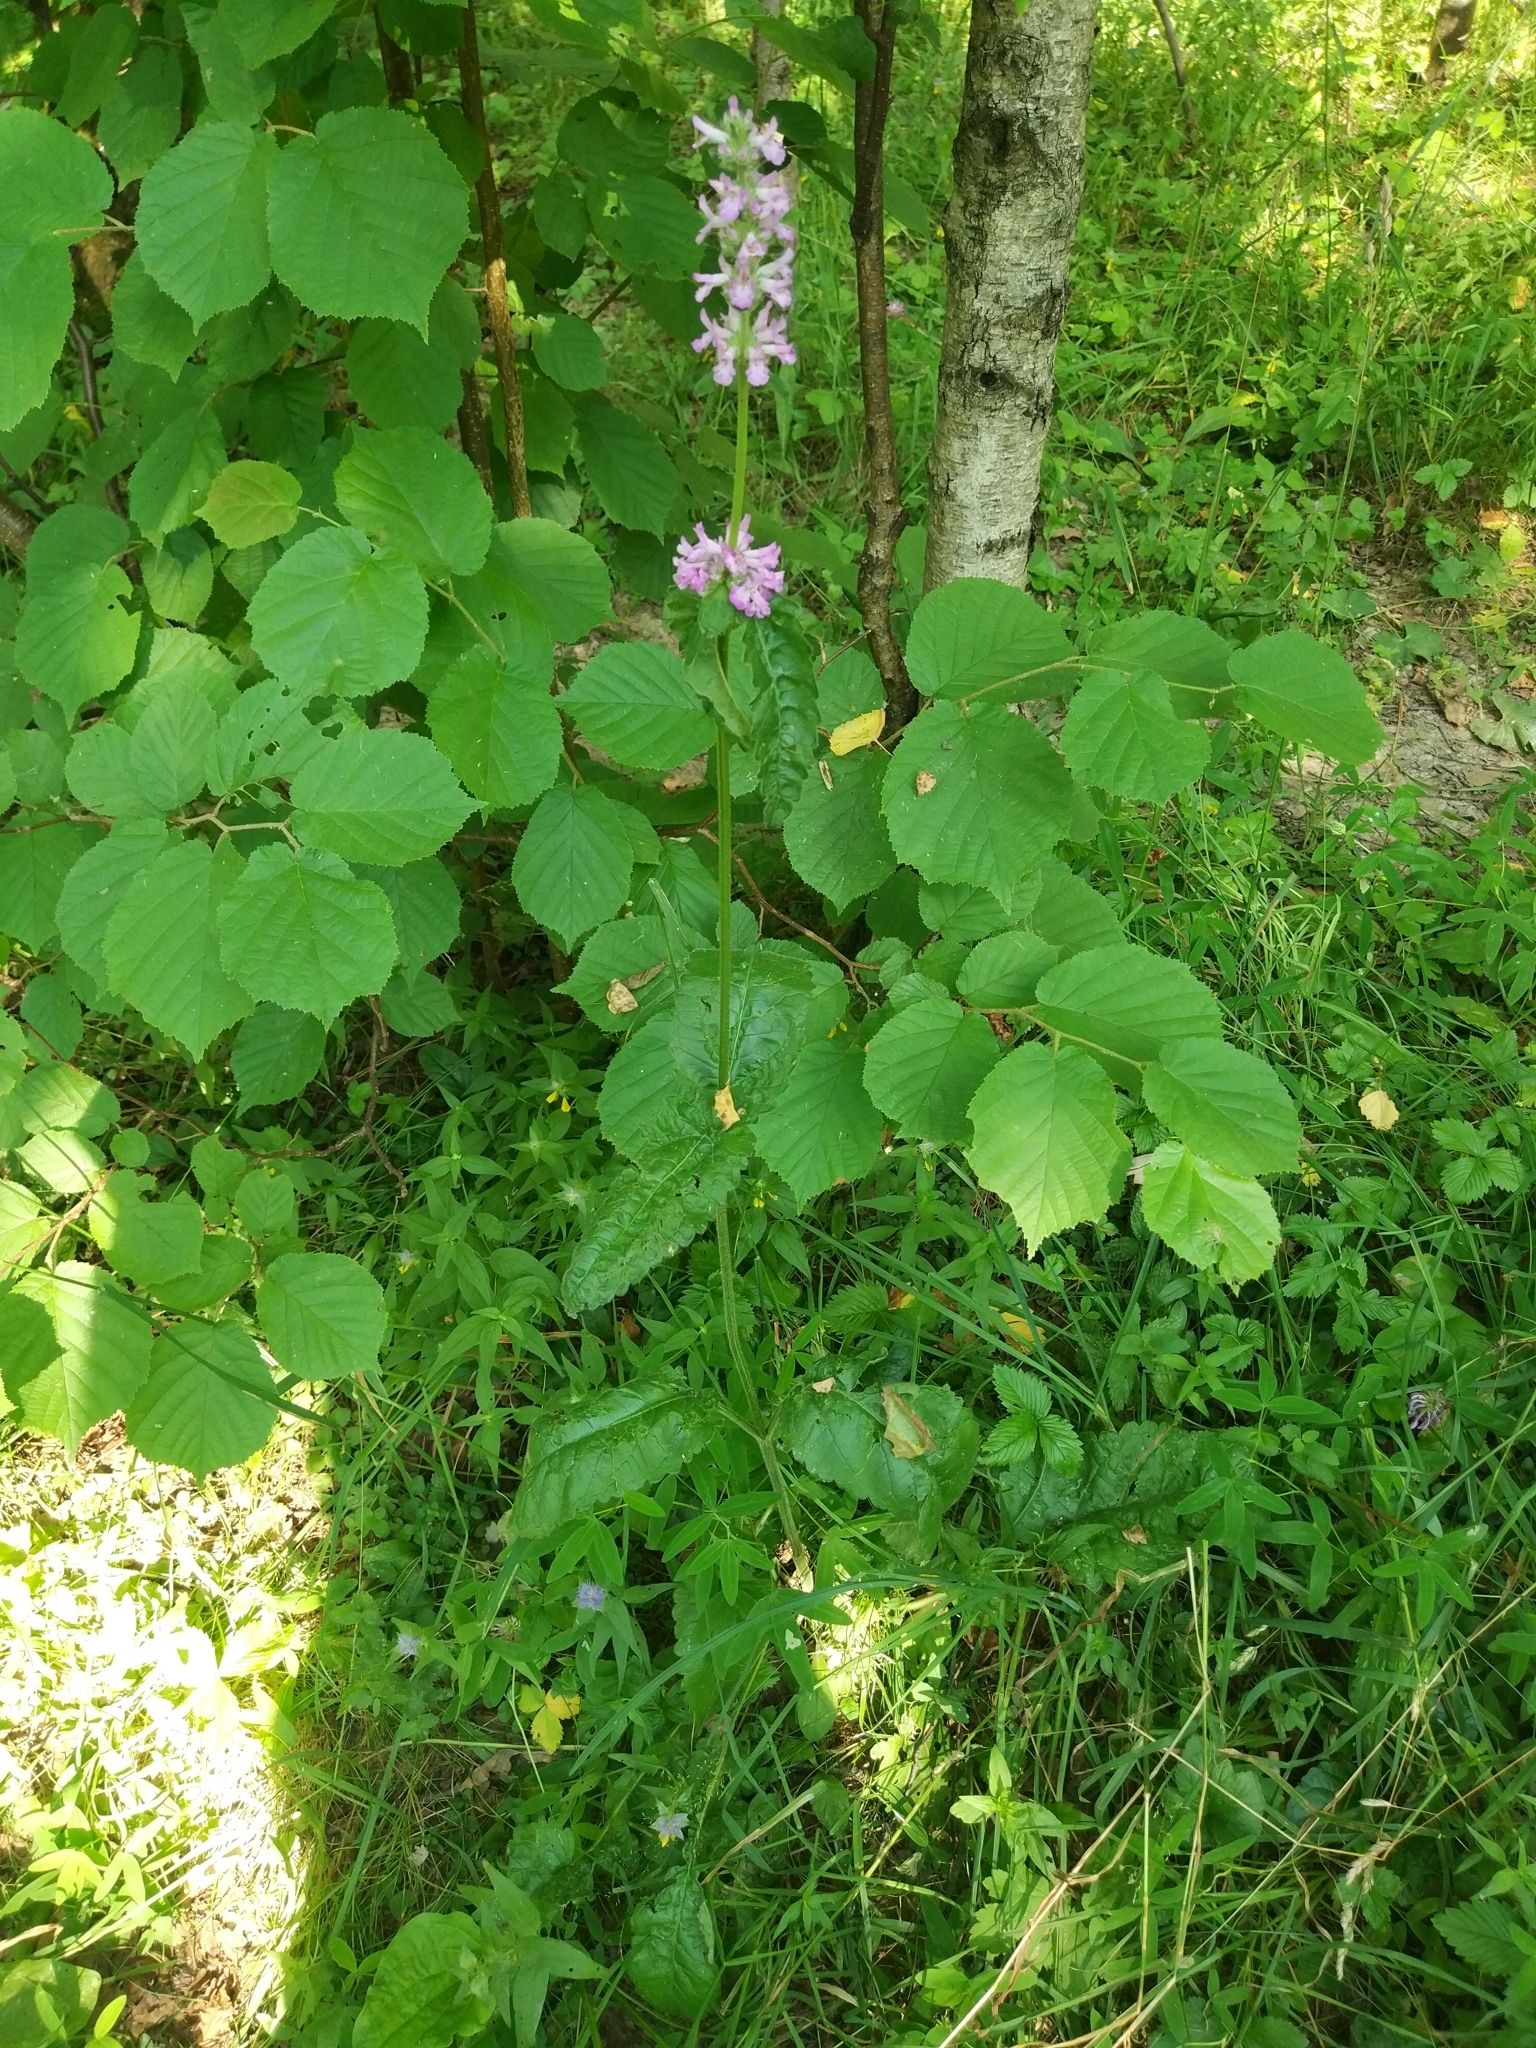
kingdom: Plantae
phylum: Tracheophyta
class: Magnoliopsida
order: Lamiales
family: Lamiaceae
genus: Betonica
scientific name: Betonica officinalis
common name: Bishop's-wort
